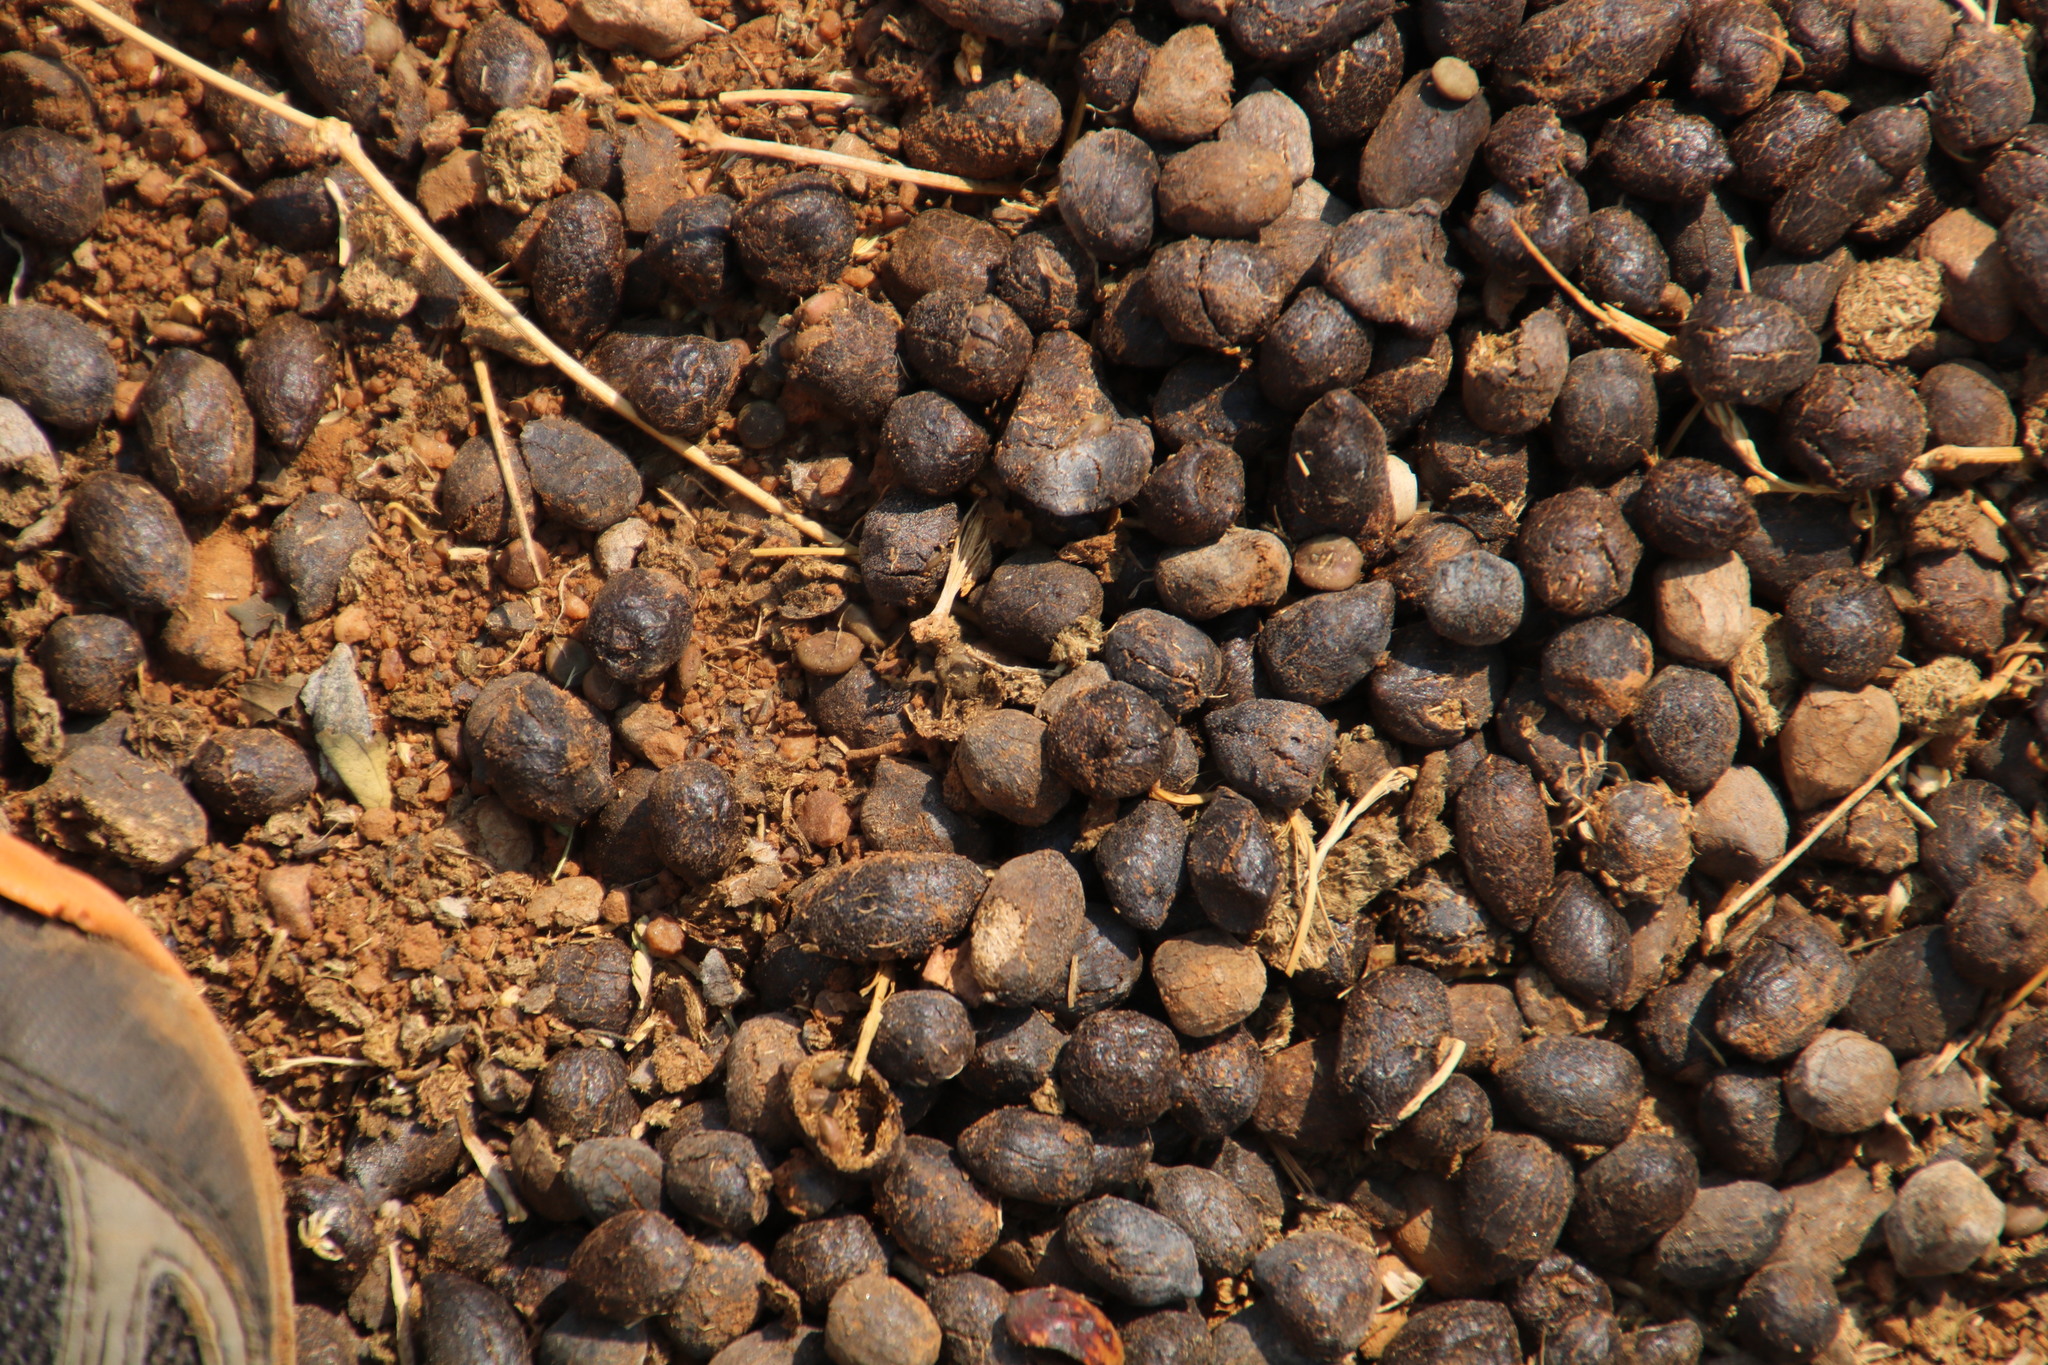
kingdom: Animalia
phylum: Chordata
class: Mammalia
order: Artiodactyla
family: Bovidae
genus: Aepyceros
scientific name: Aepyceros melampus
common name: Impala
